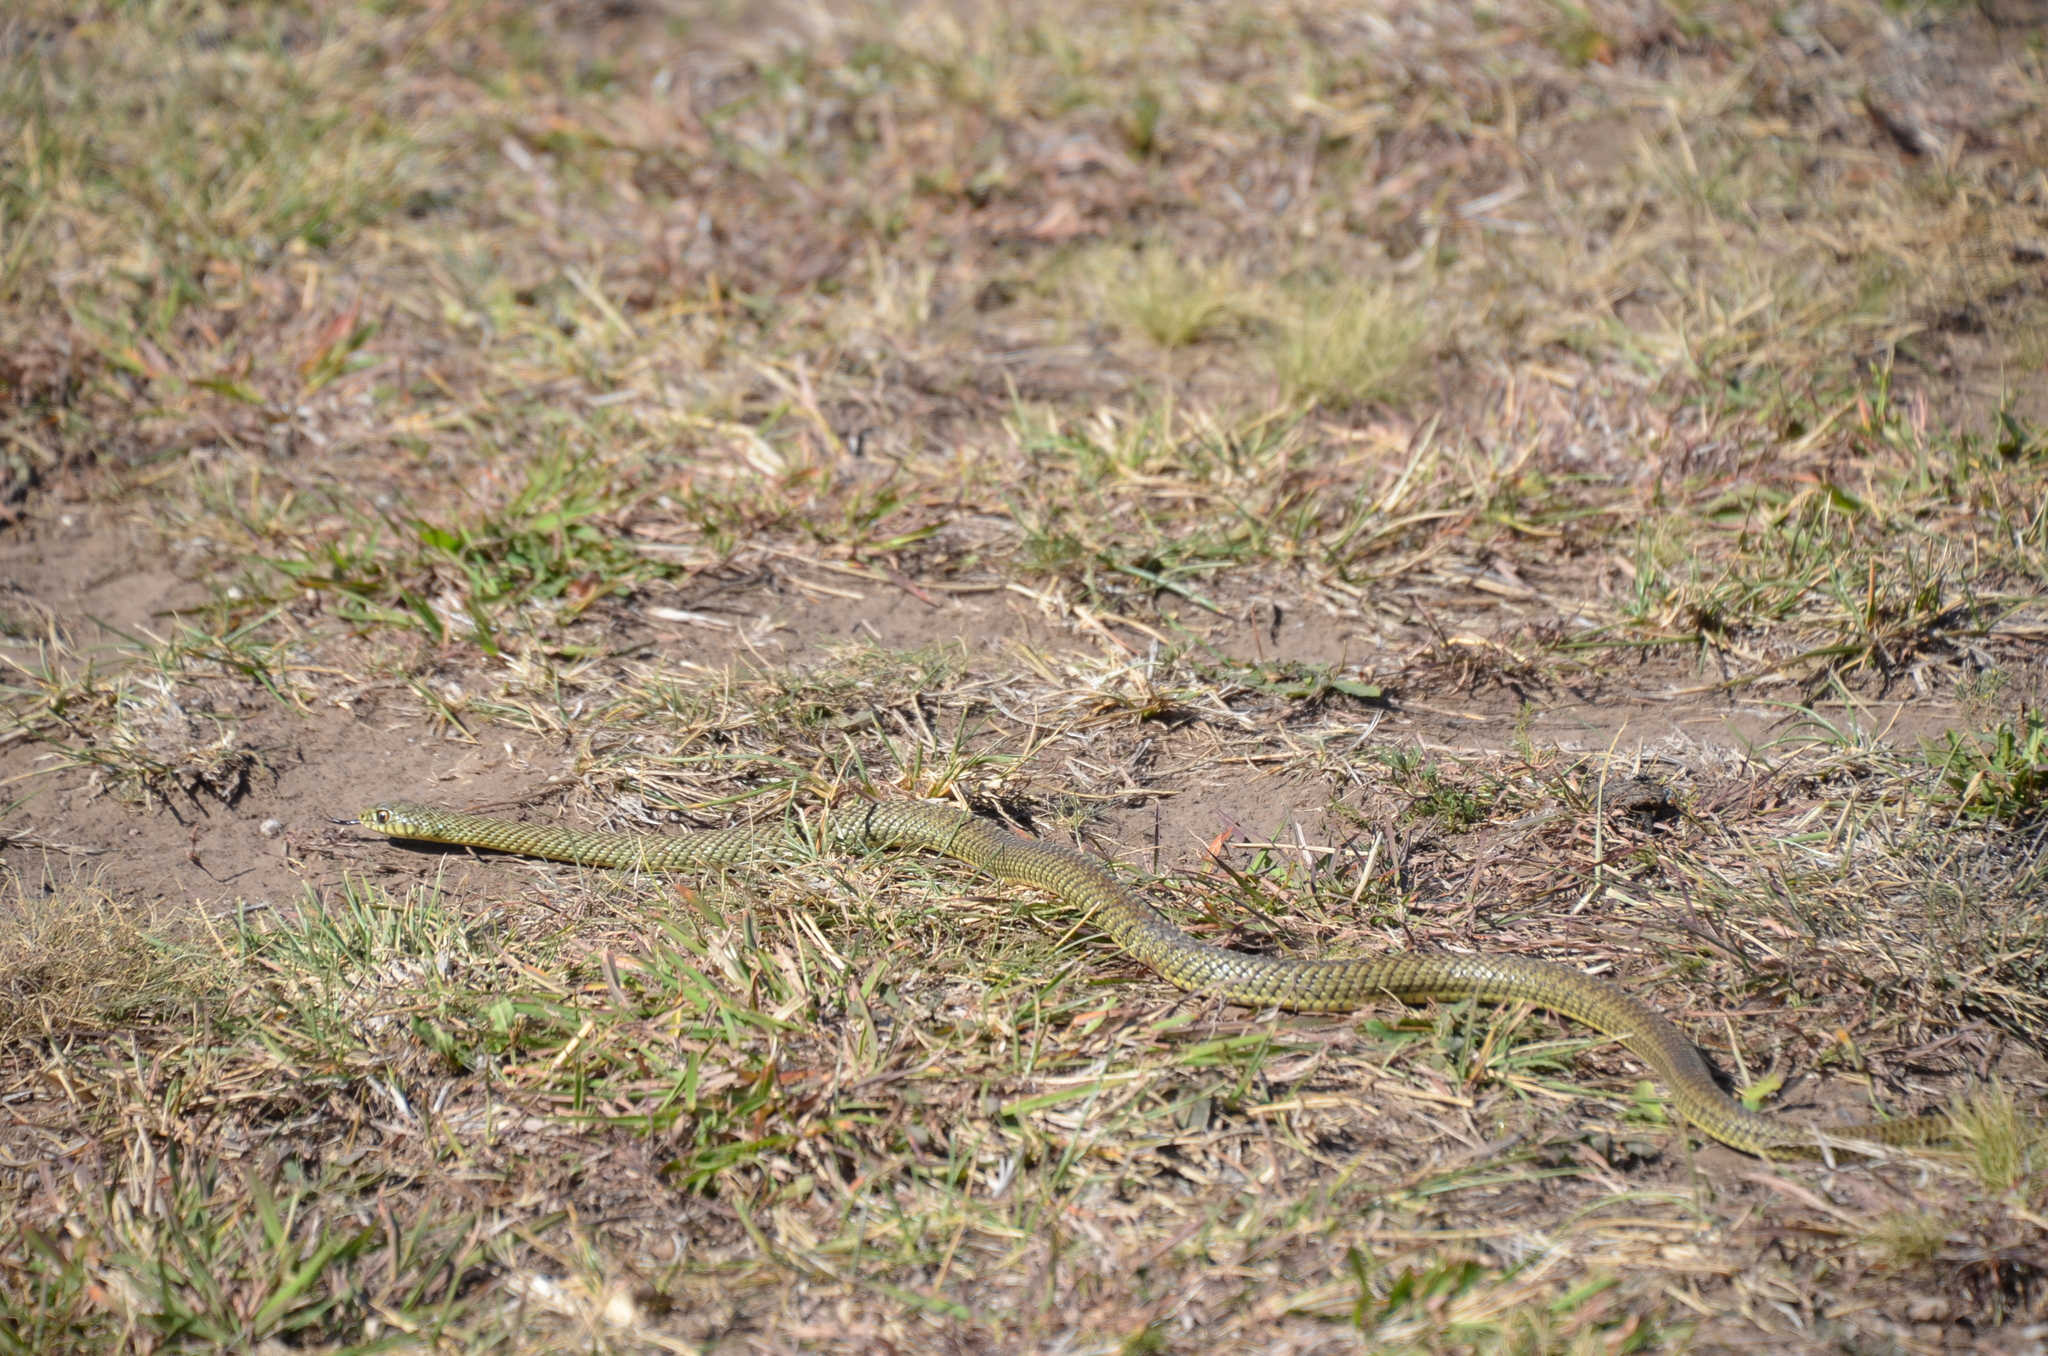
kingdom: Animalia
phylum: Chordata
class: Squamata
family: Colubridae
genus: Philodryas
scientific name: Philodryas patagoniensis
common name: Patagonia green racer
